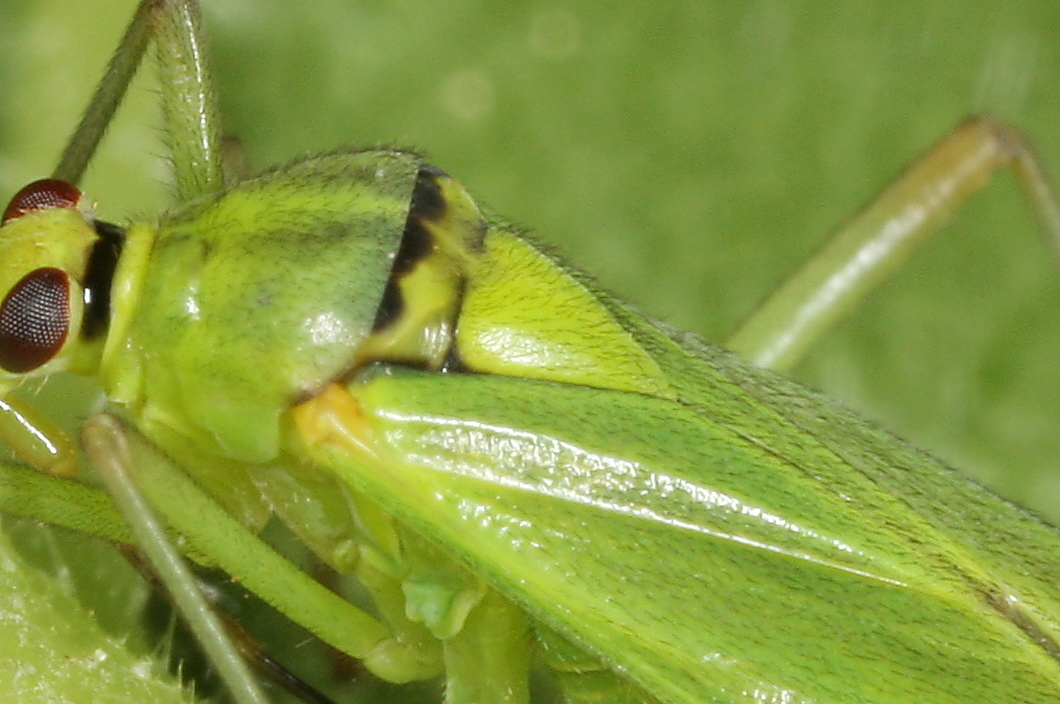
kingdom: Animalia
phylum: Arthropoda
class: Insecta
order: Hemiptera
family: Miridae
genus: Calocoris
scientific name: Calocoris alpestris
